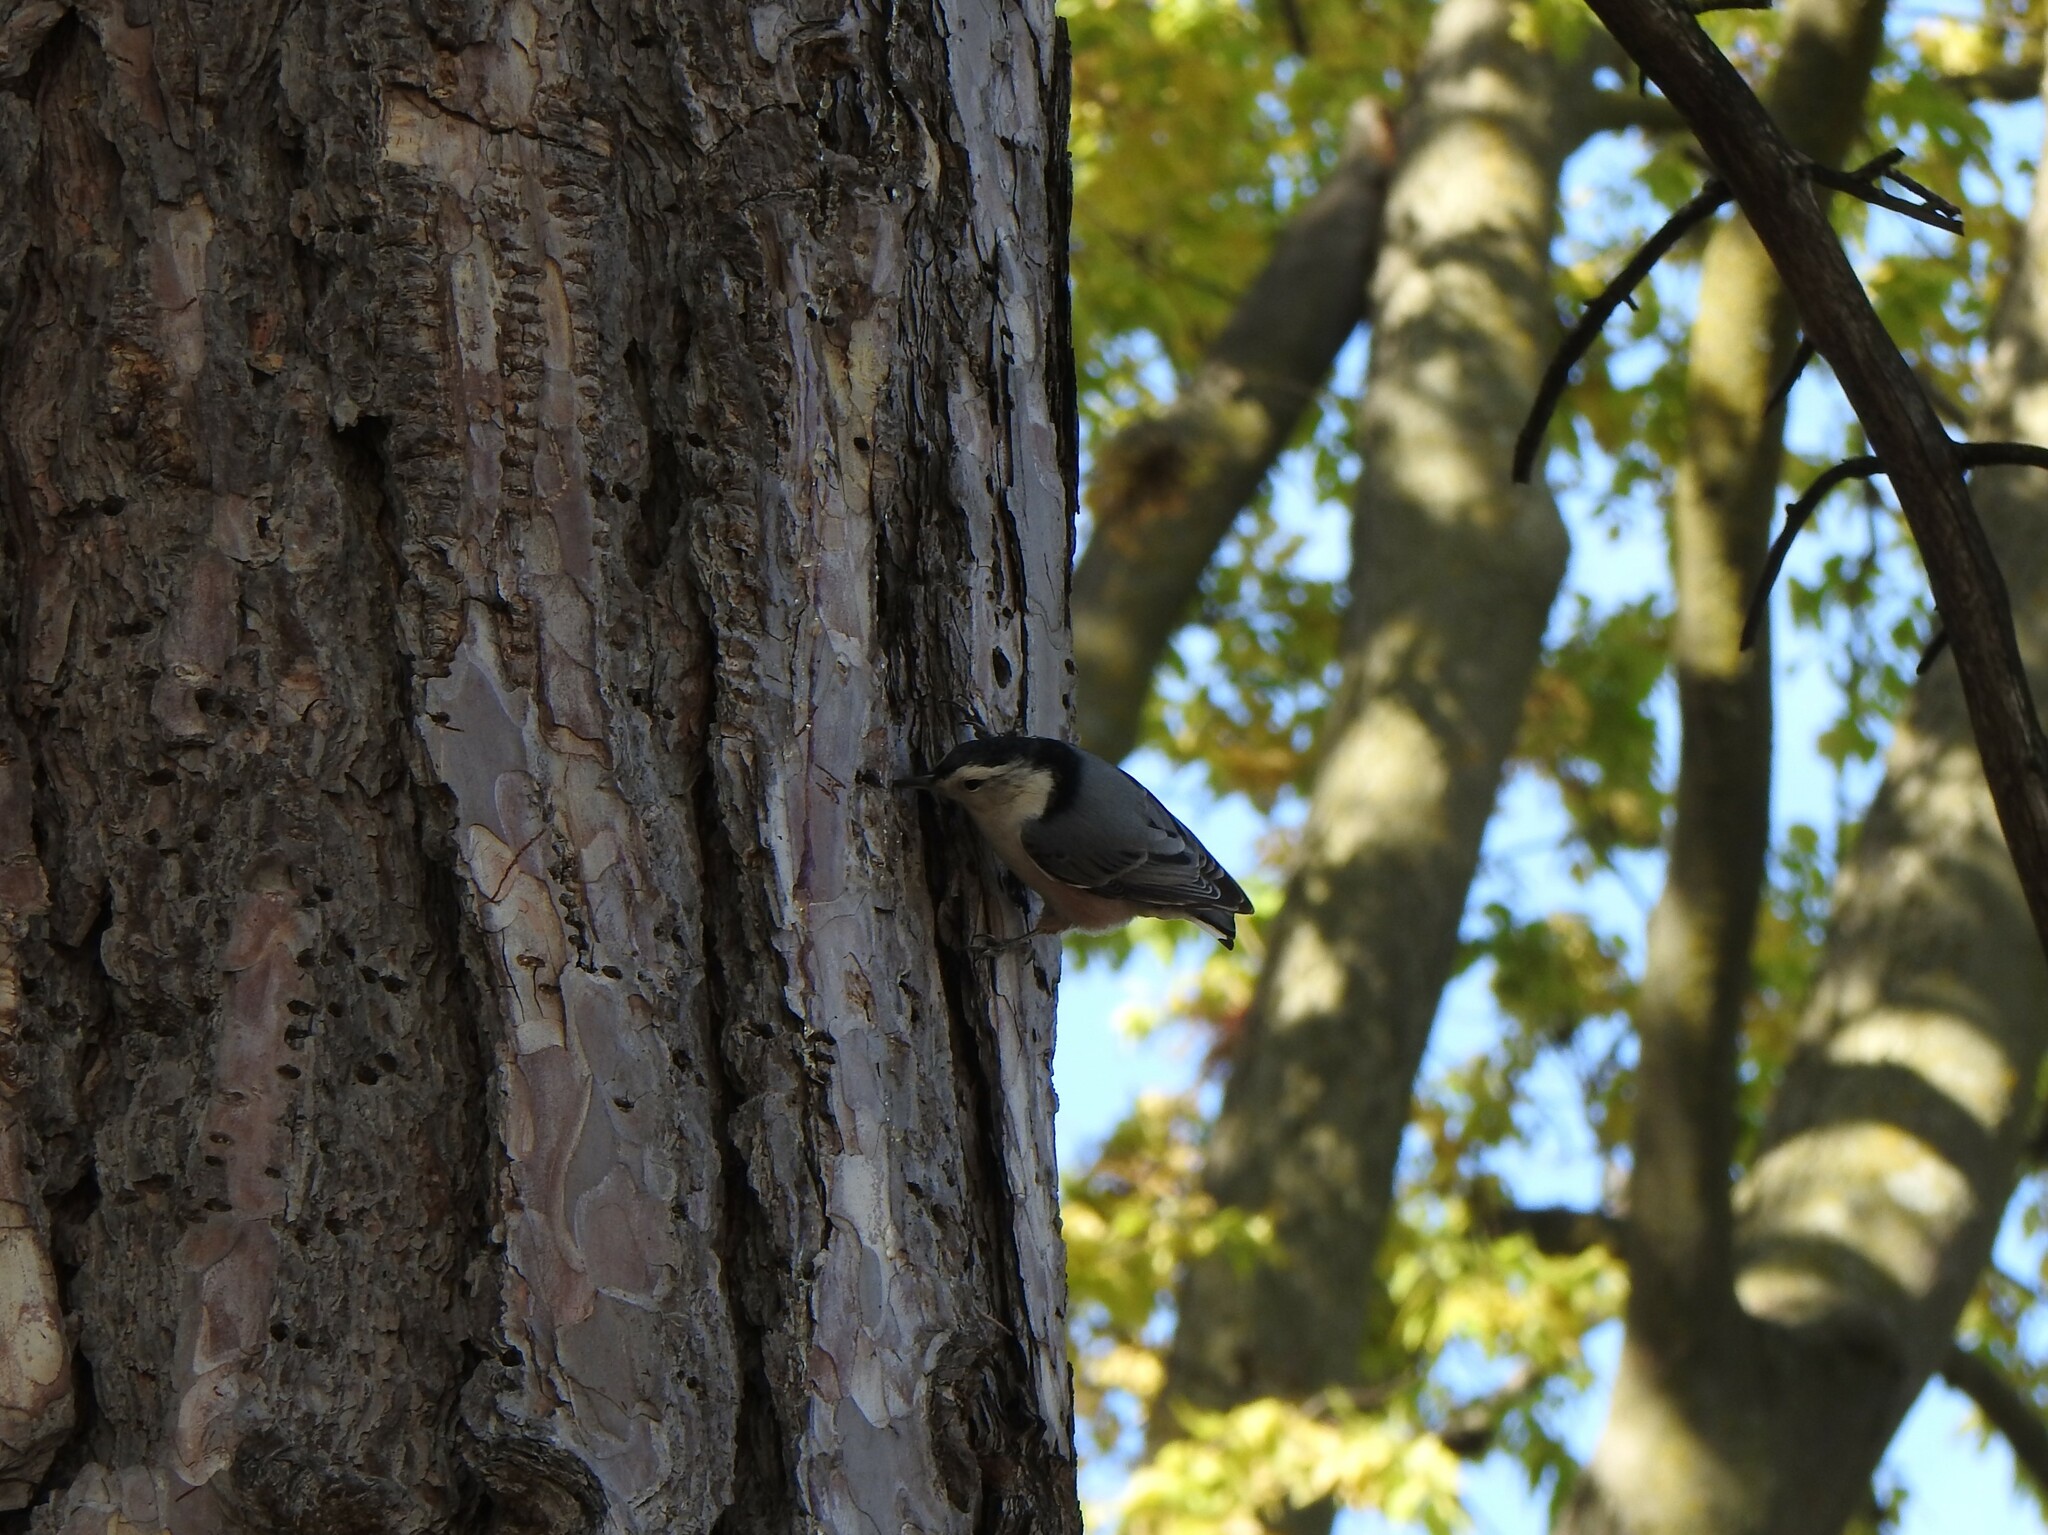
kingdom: Animalia
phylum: Chordata
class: Aves
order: Passeriformes
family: Sittidae
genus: Sitta
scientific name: Sitta carolinensis
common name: White-breasted nuthatch
